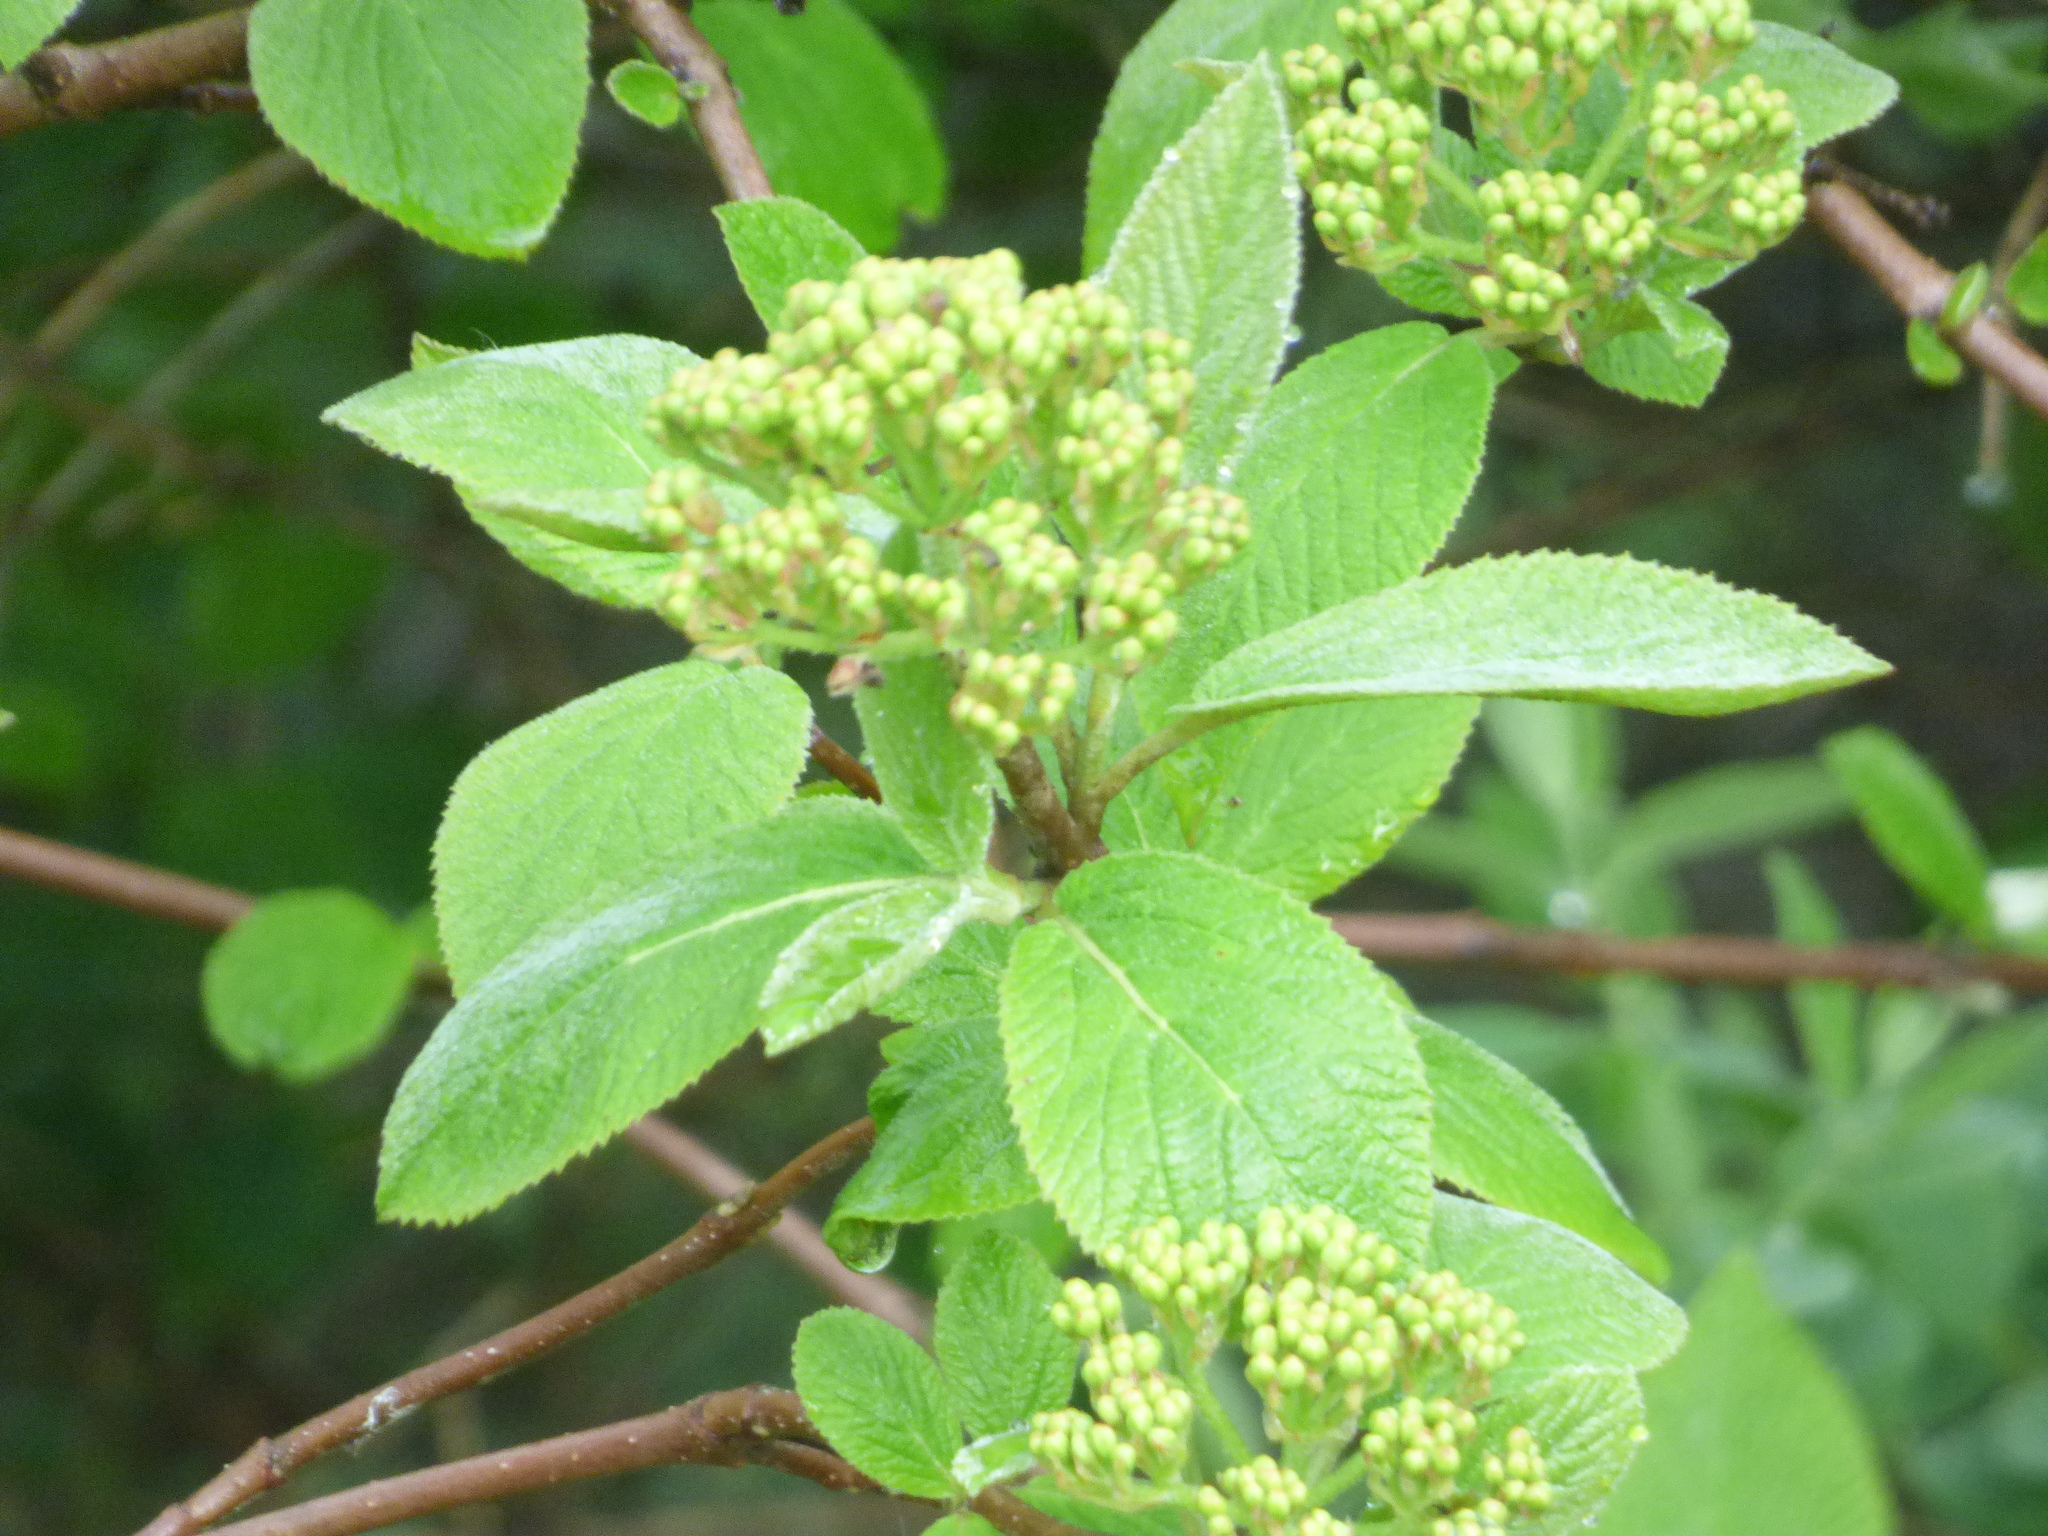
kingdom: Plantae
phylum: Tracheophyta
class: Magnoliopsida
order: Dipsacales
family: Viburnaceae
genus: Viburnum
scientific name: Viburnum lantana
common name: Wayfaring tree
